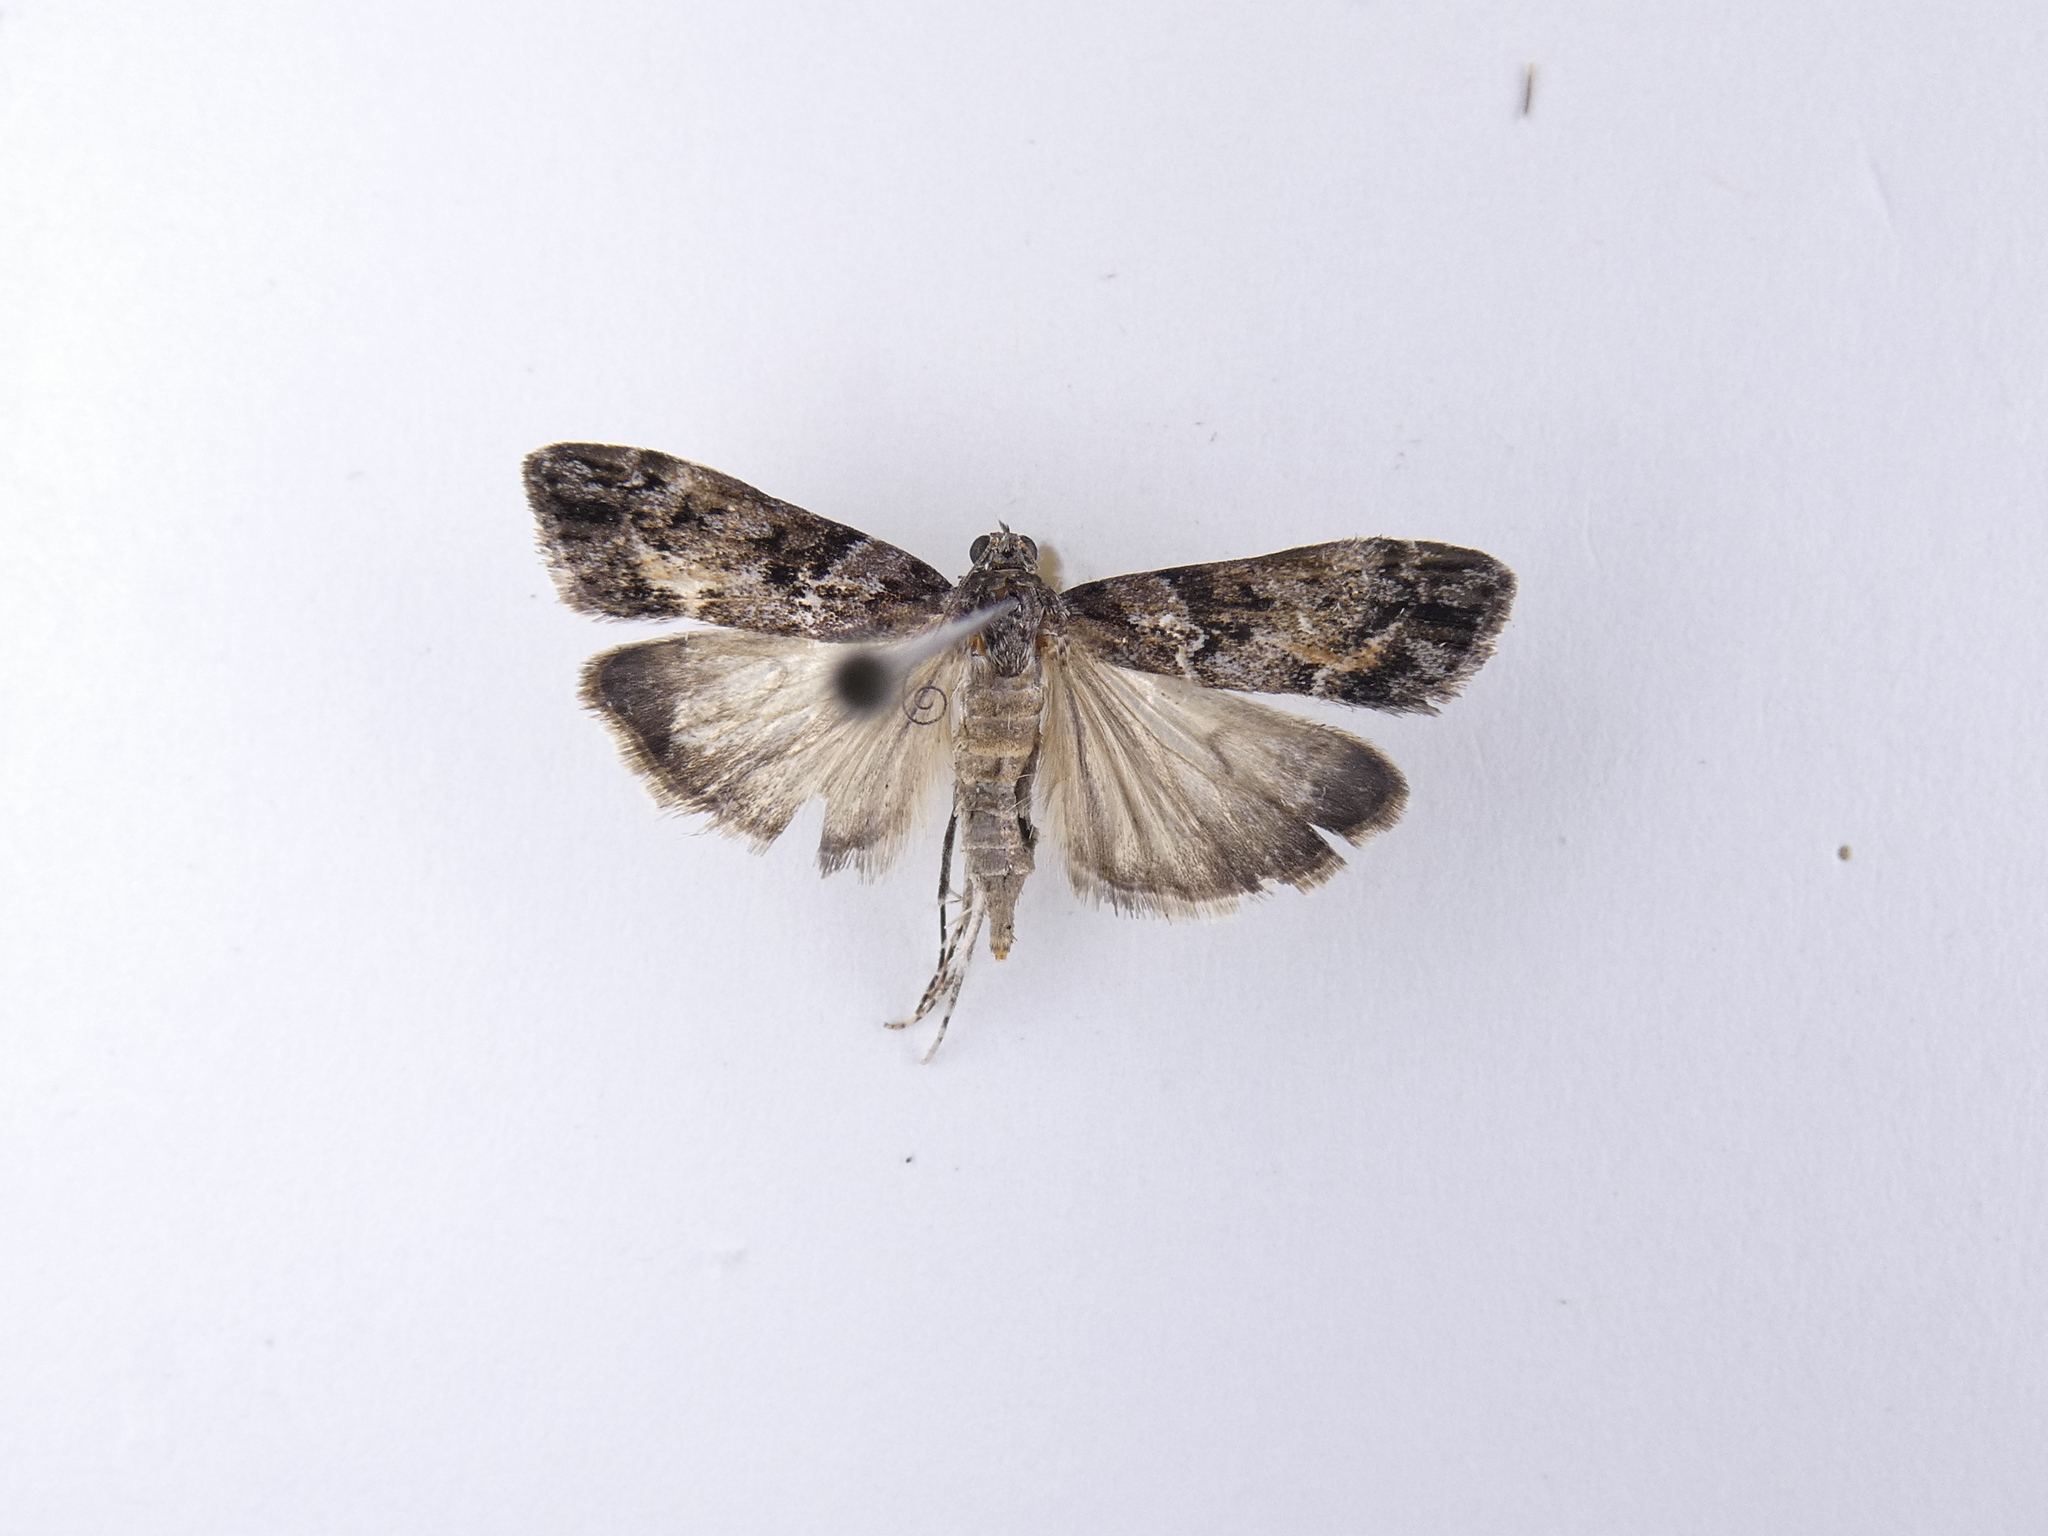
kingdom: Animalia
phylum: Arthropoda
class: Insecta
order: Lepidoptera
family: Crambidae
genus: Eudonia
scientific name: Eudonia submarginalis
